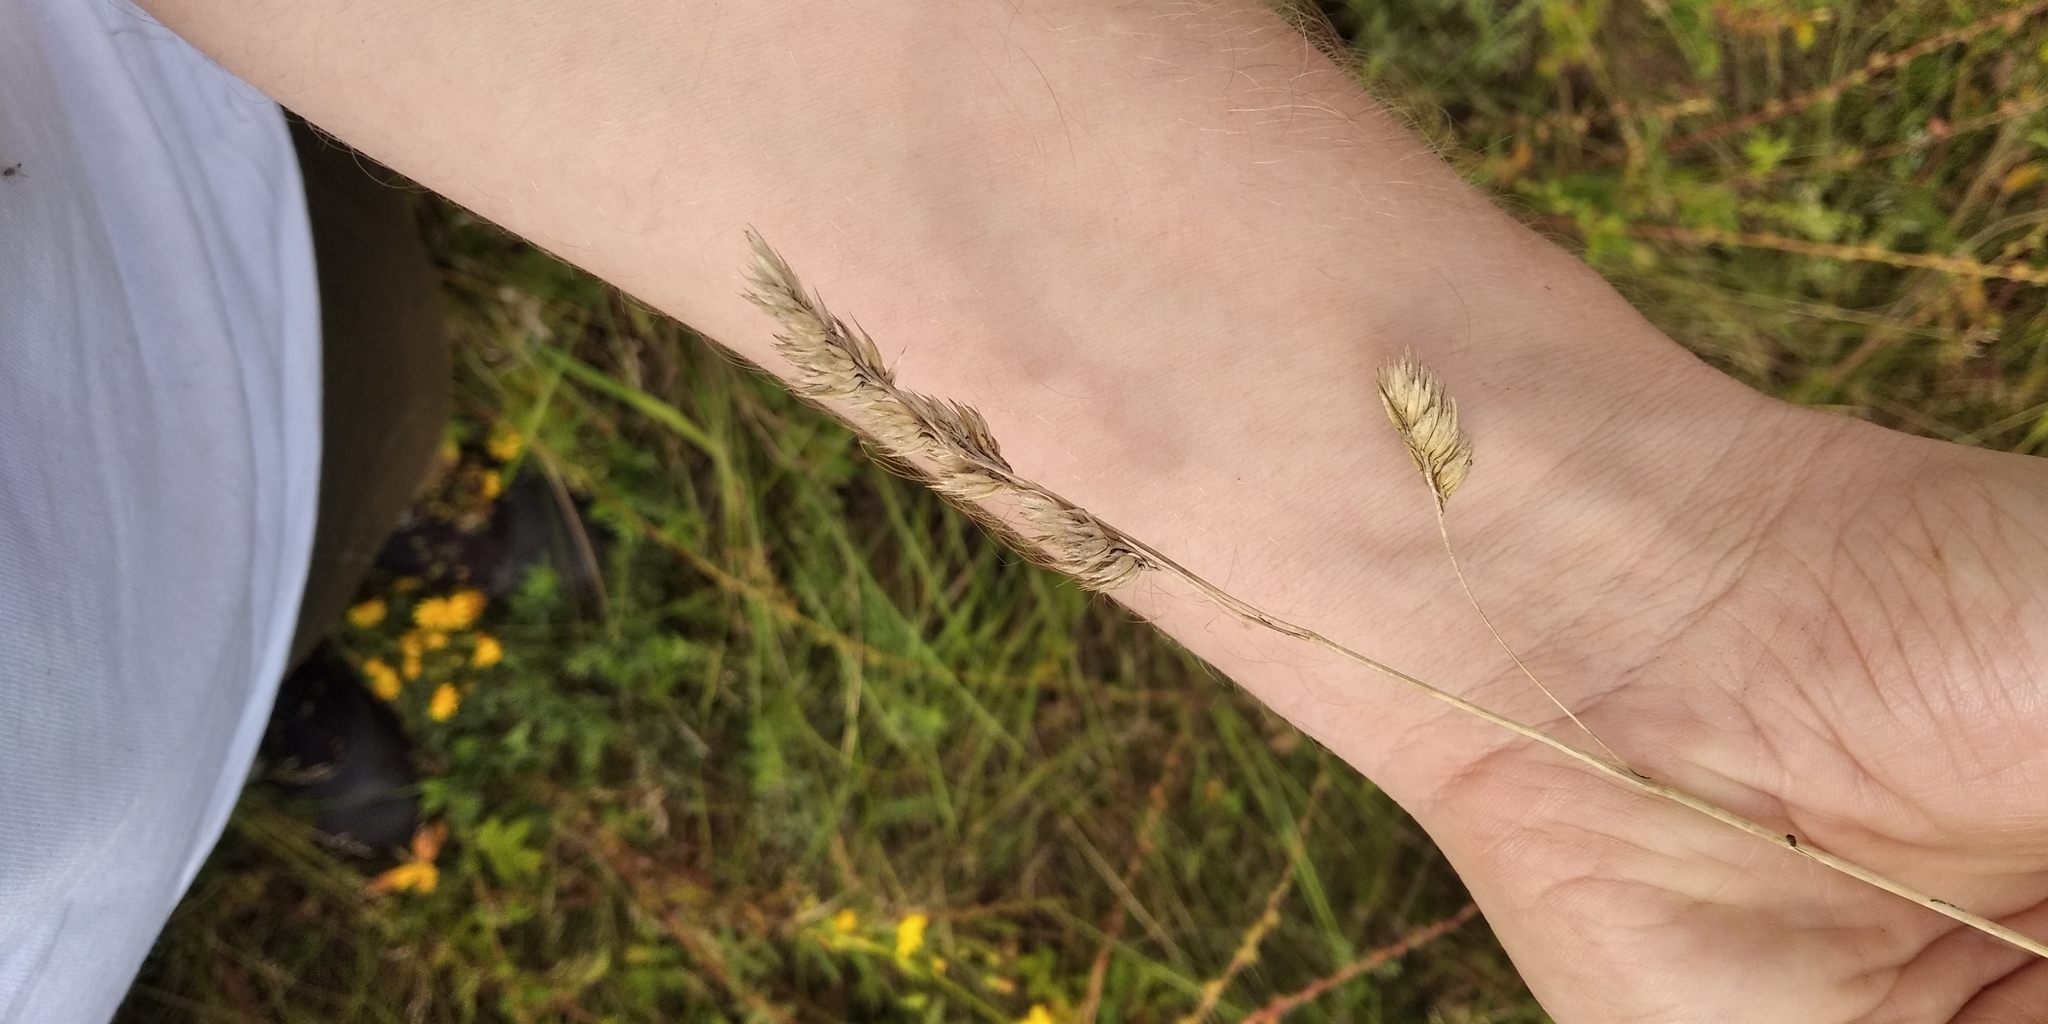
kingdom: Plantae
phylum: Tracheophyta
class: Liliopsida
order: Poales
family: Poaceae
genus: Dactylis
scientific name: Dactylis glomerata
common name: Orchardgrass
